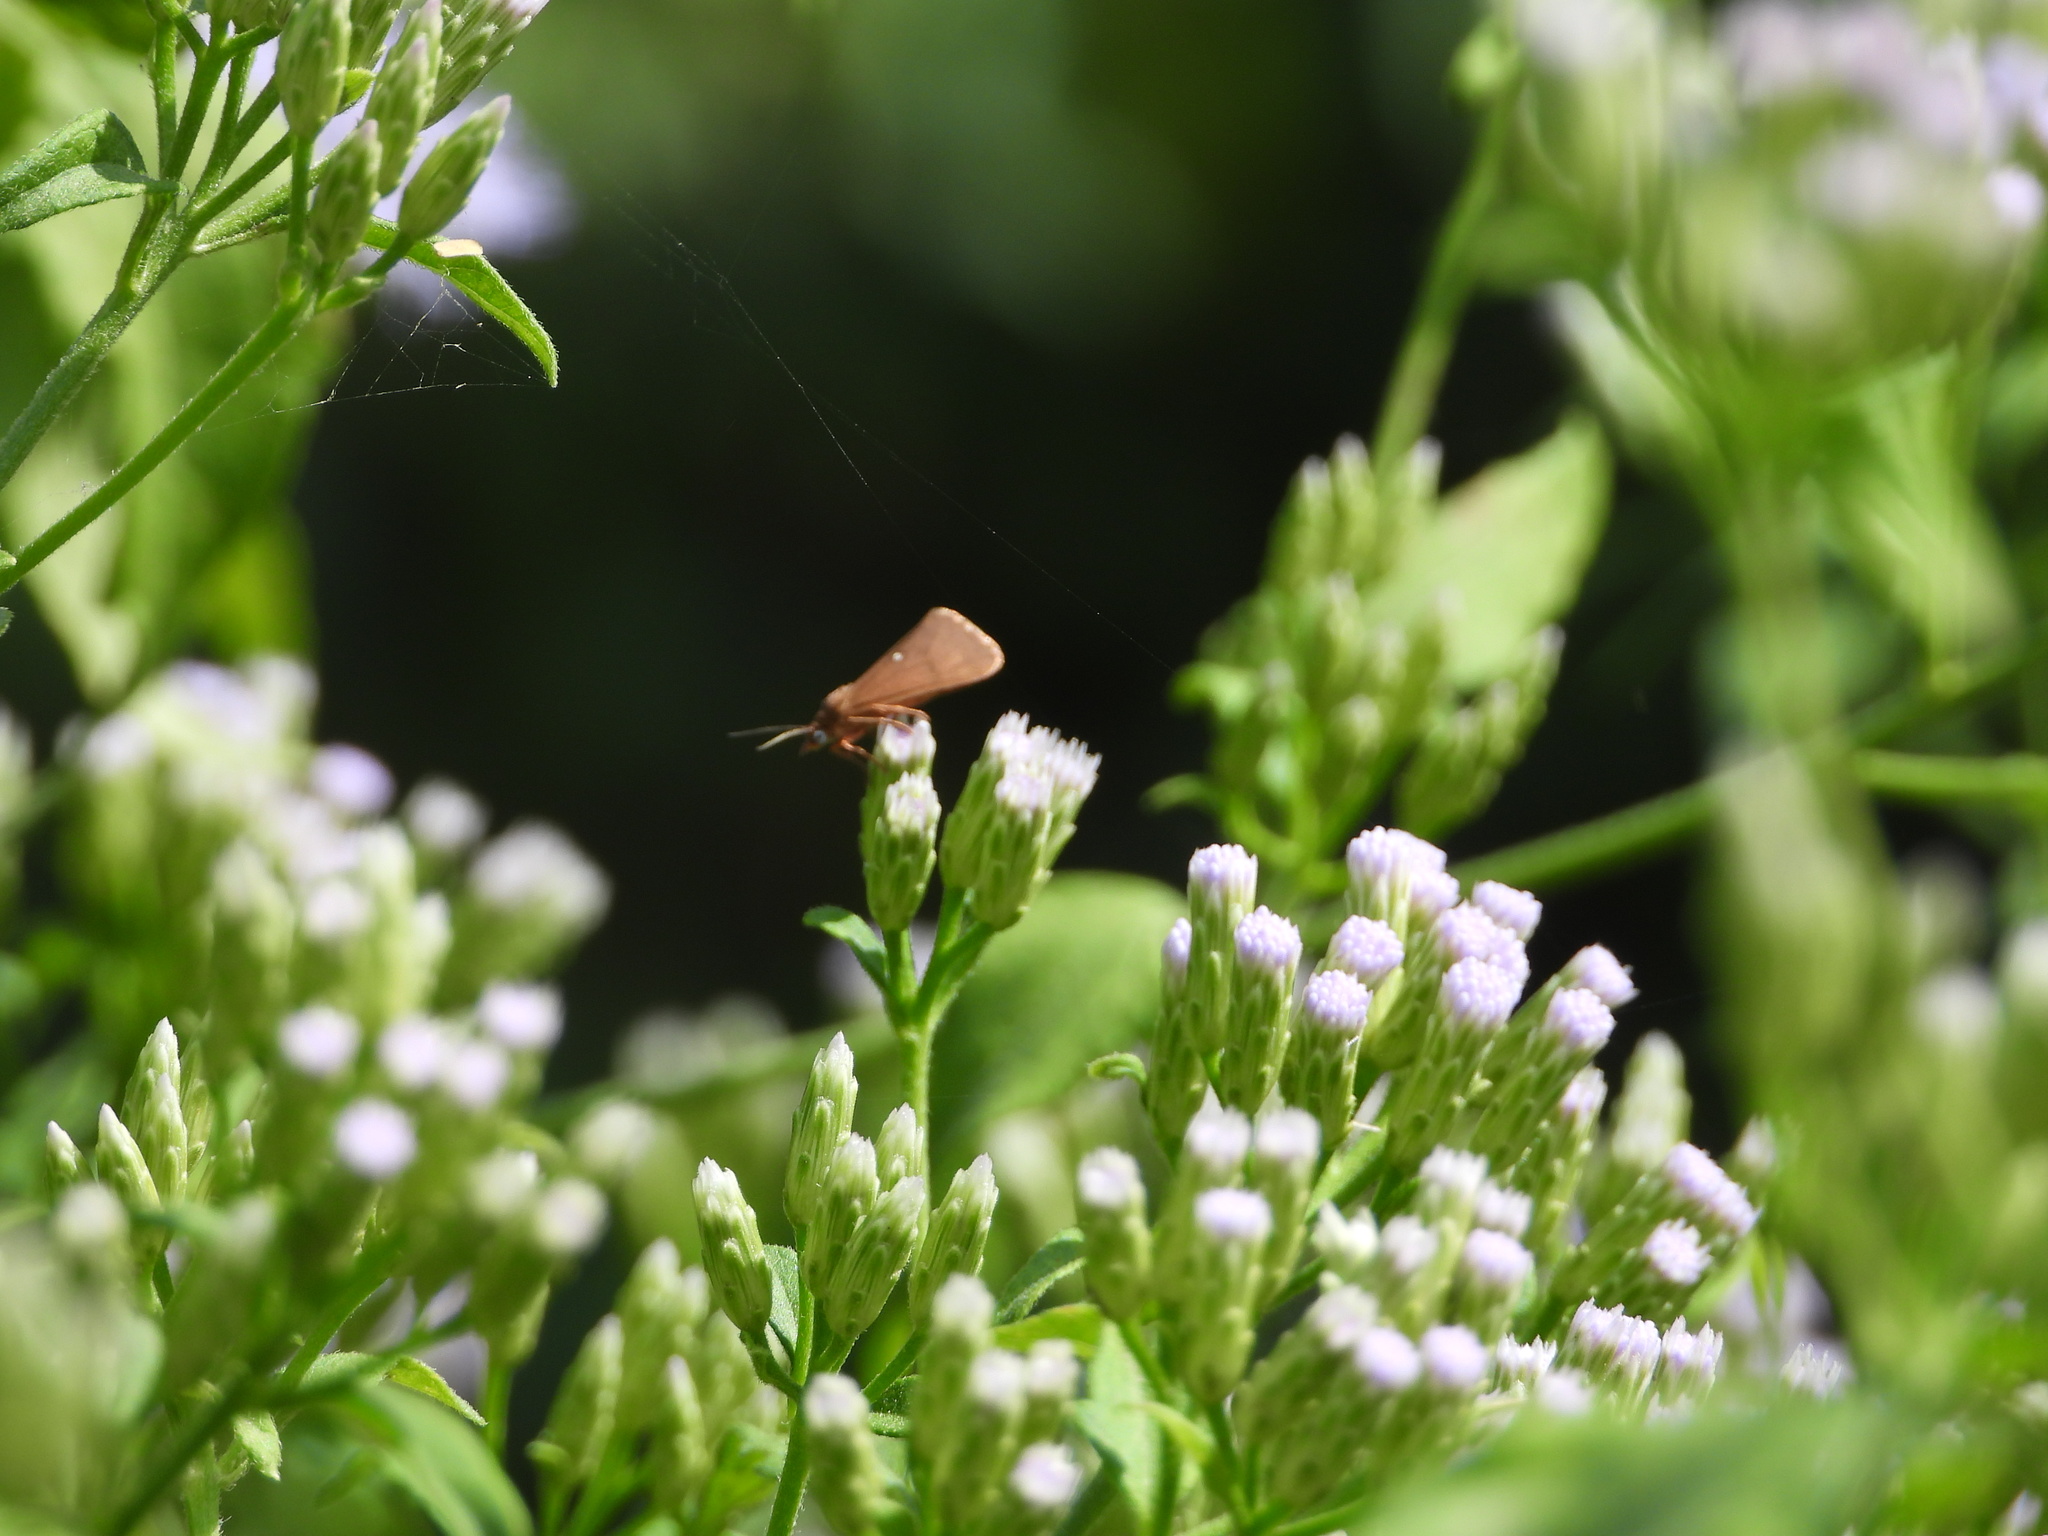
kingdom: Animalia
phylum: Arthropoda
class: Insecta
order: Lepidoptera
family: Erebidae
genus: Virbia
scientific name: Virbia aurantiaca
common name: Orange virbia moth
